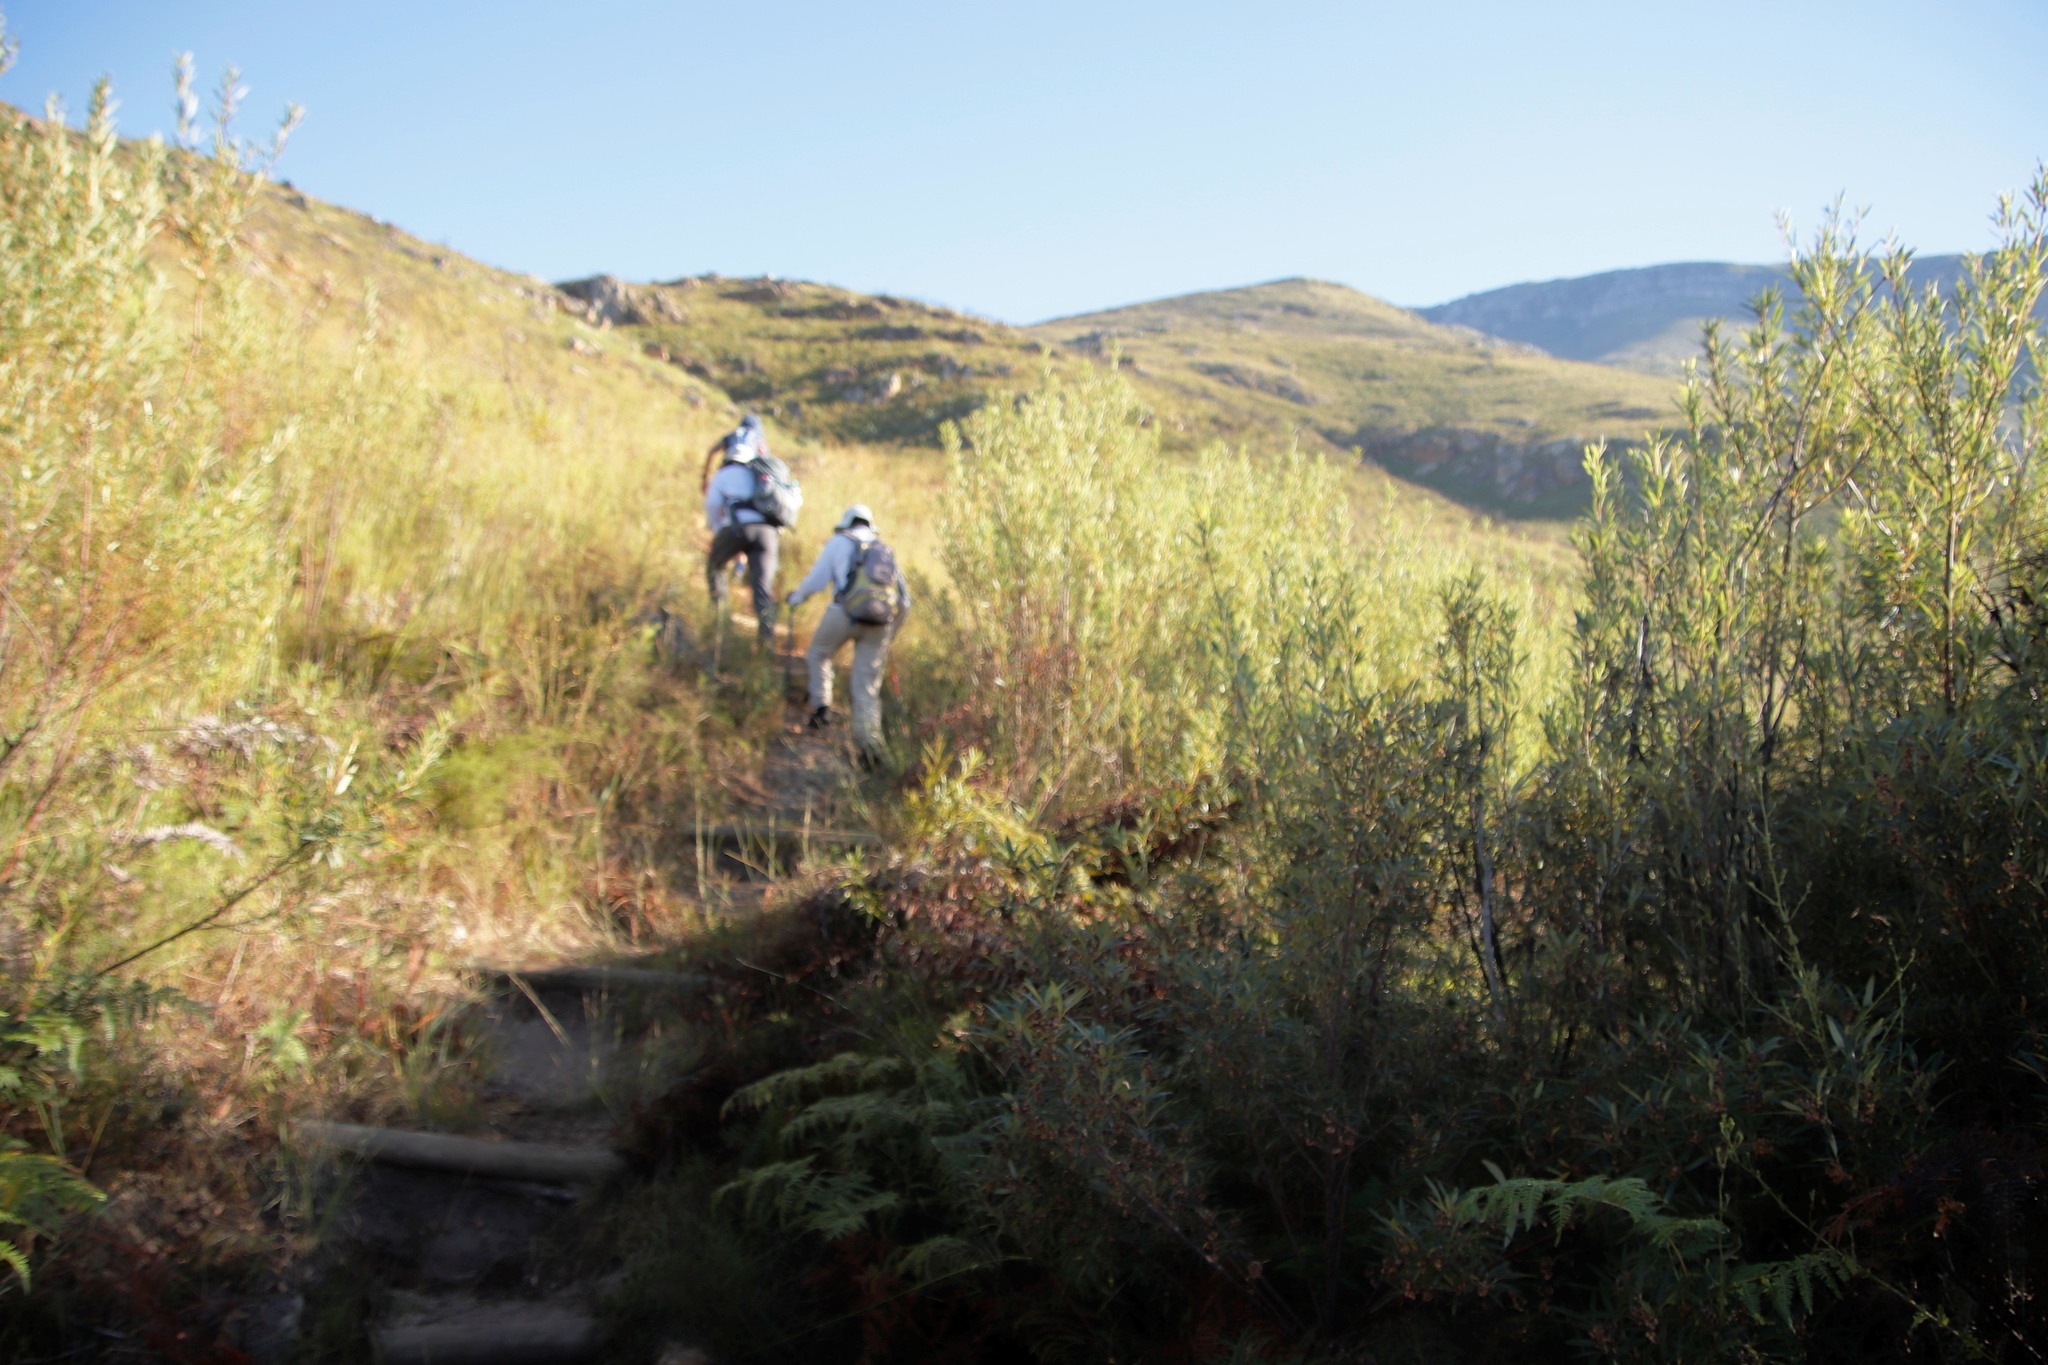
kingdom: Plantae
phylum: Tracheophyta
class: Magnoliopsida
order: Sapindales
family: Anacardiaceae
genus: Searsia
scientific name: Searsia angustifolia
